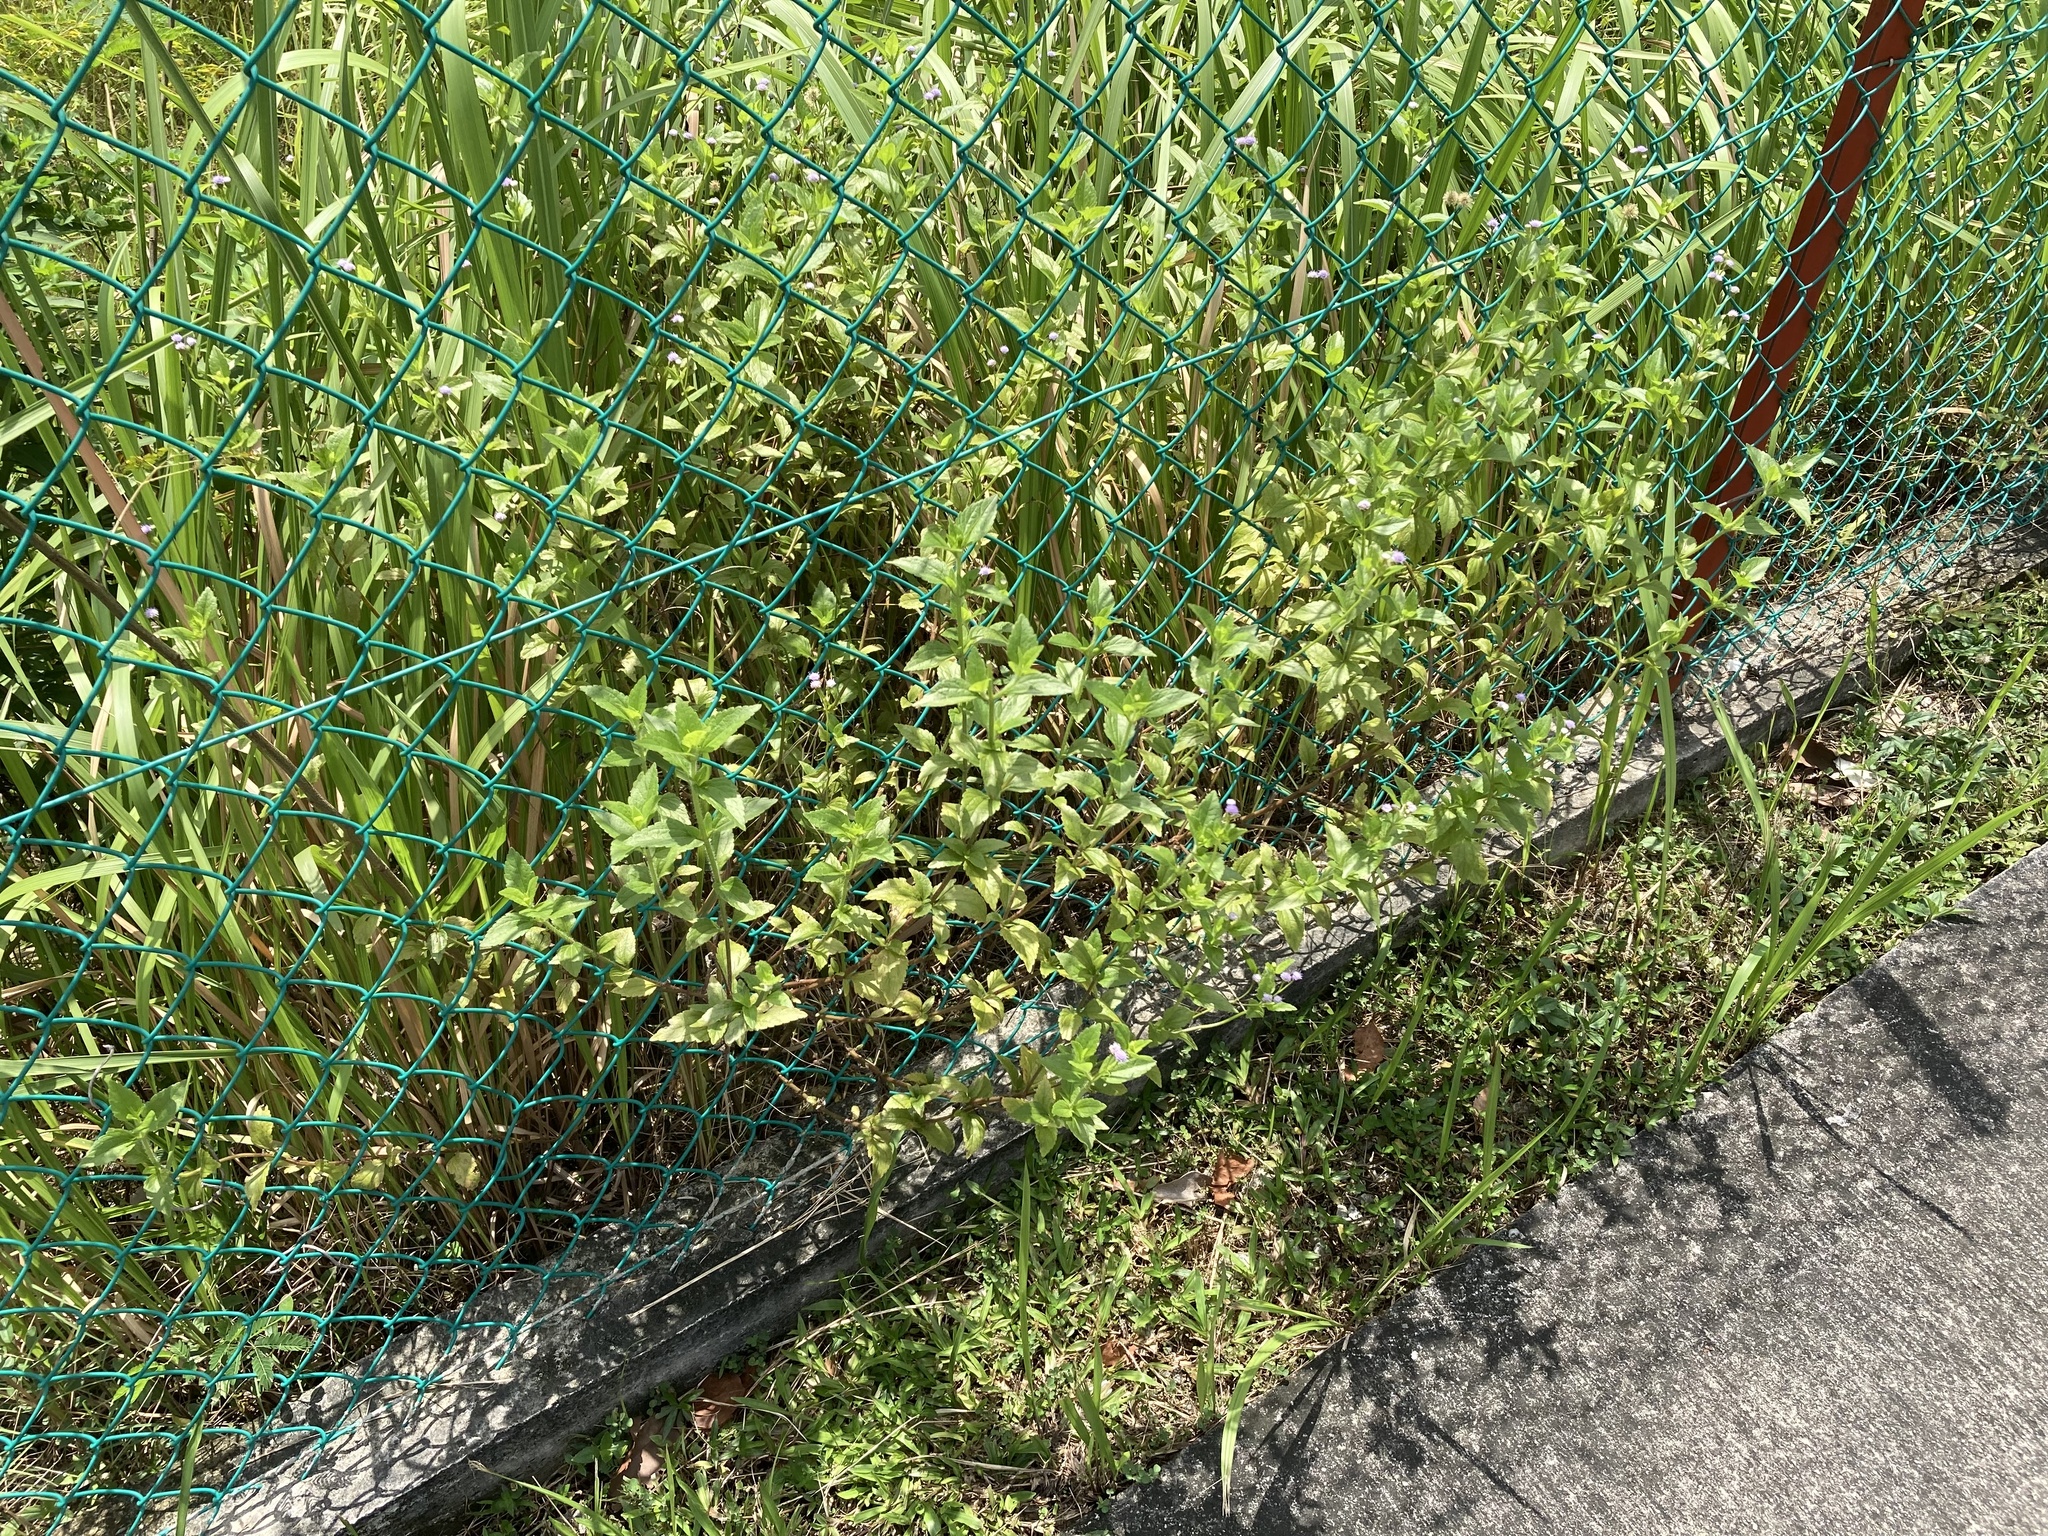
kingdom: Plantae
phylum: Tracheophyta
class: Magnoliopsida
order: Asterales
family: Asteraceae
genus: Praxelis
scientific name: Praxelis clematidea
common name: Praxelis
